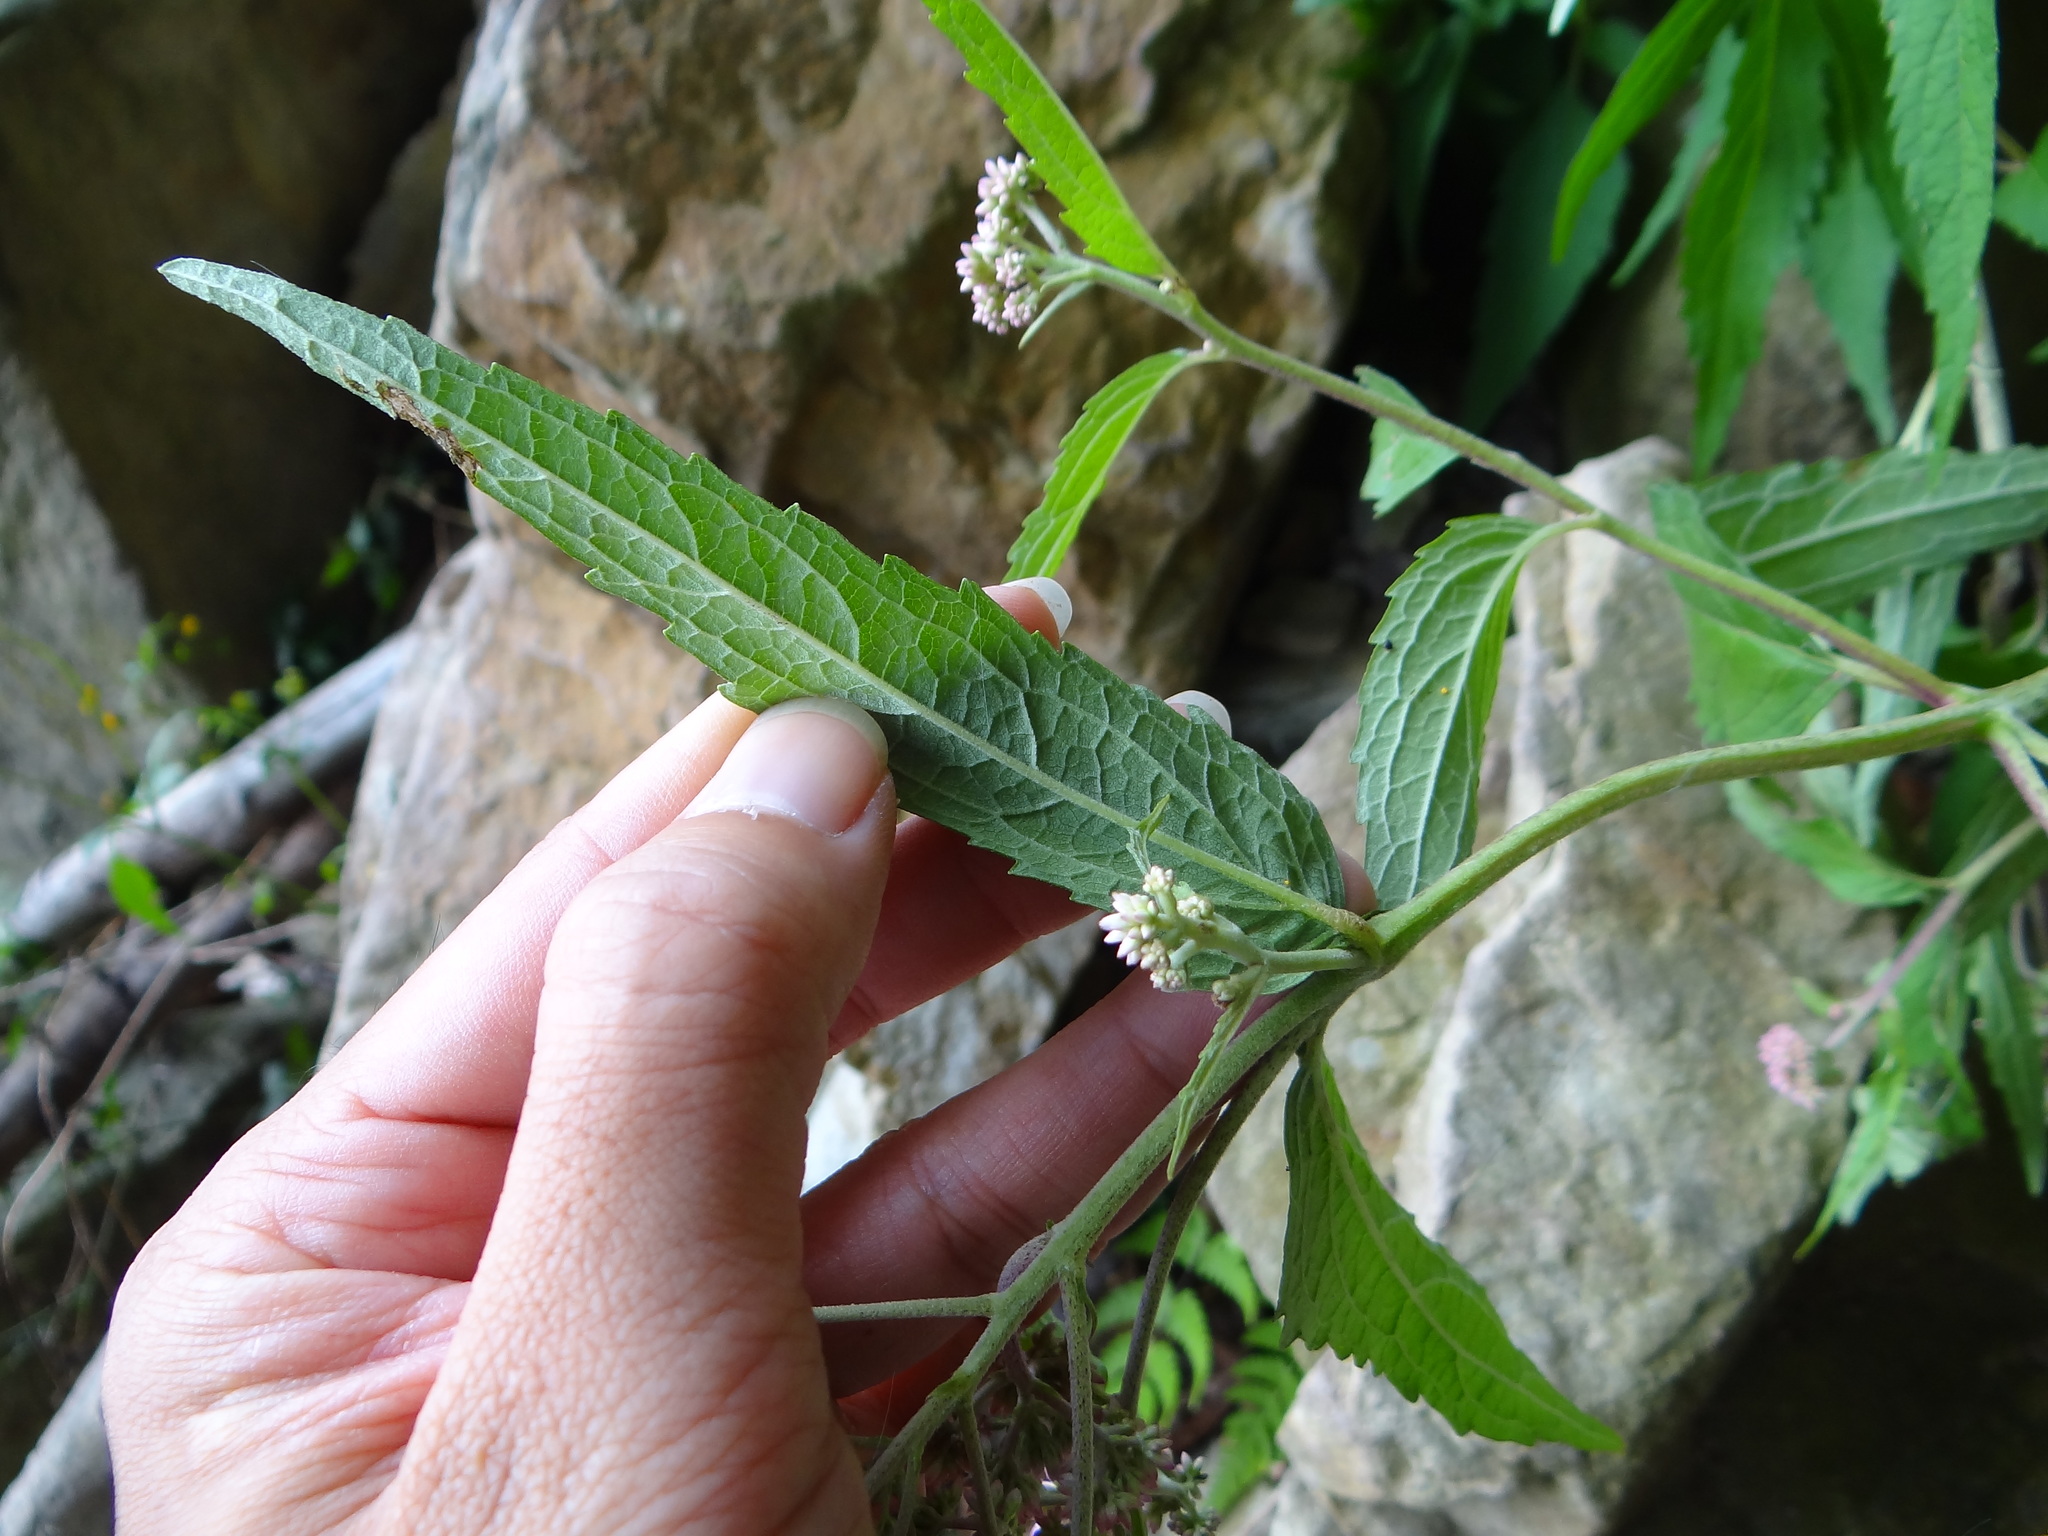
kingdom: Plantae
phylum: Tracheophyta
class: Magnoliopsida
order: Asterales
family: Asteraceae
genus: Eupatorium
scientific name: Eupatorium formosanum
